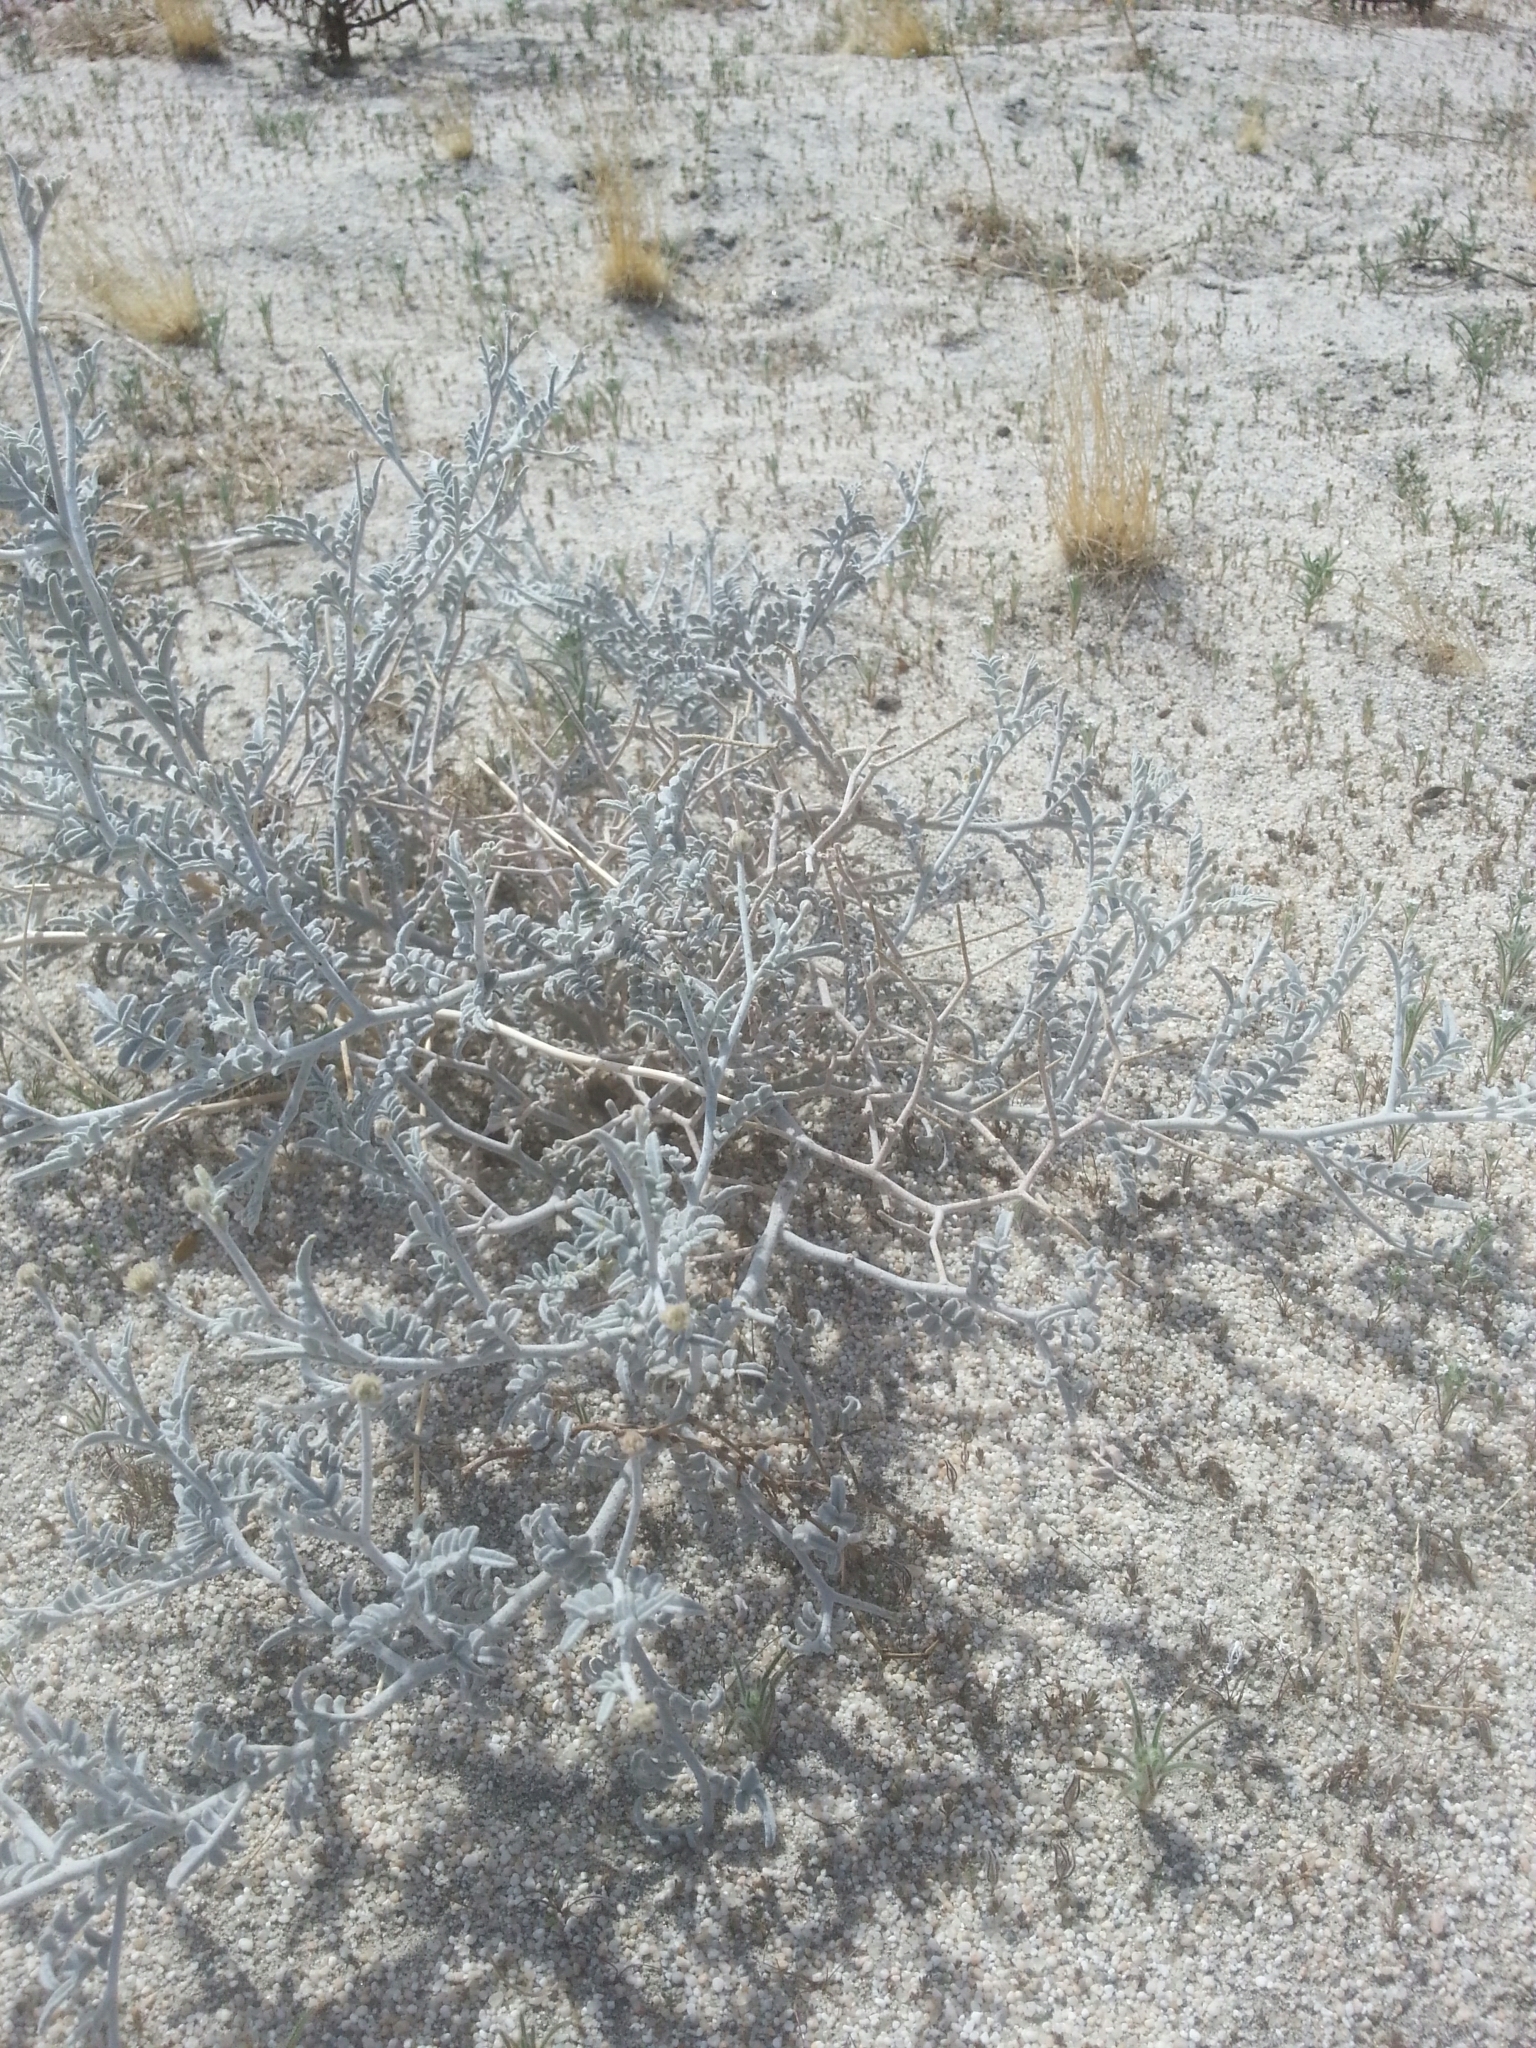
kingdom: Plantae
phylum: Tracheophyta
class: Magnoliopsida
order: Fabales
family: Fabaceae
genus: Psorothamnus
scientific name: Psorothamnus emoryi
